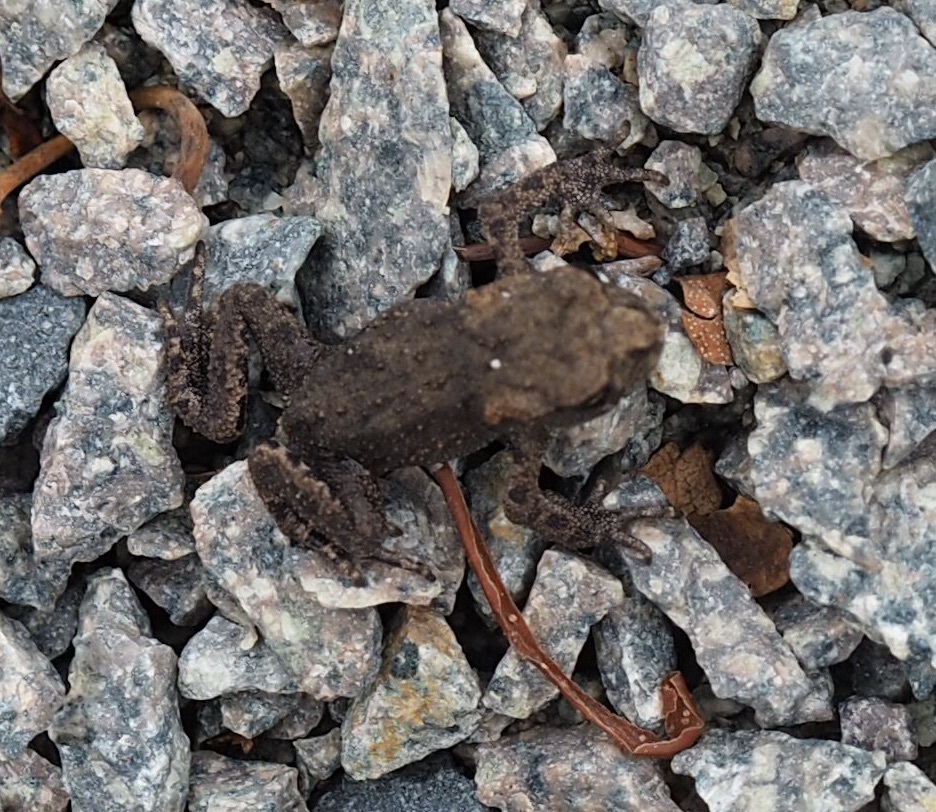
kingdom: Animalia
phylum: Chordata
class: Amphibia
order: Anura
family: Bufonidae
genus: Bufo
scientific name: Bufo bufo
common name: Common toad
